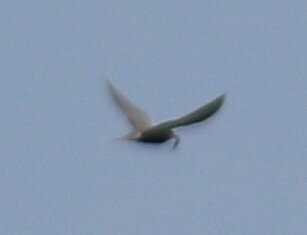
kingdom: Animalia
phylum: Chordata
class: Aves
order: Charadriiformes
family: Laridae
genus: Chlidonias
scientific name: Chlidonias niger
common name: Black tern
